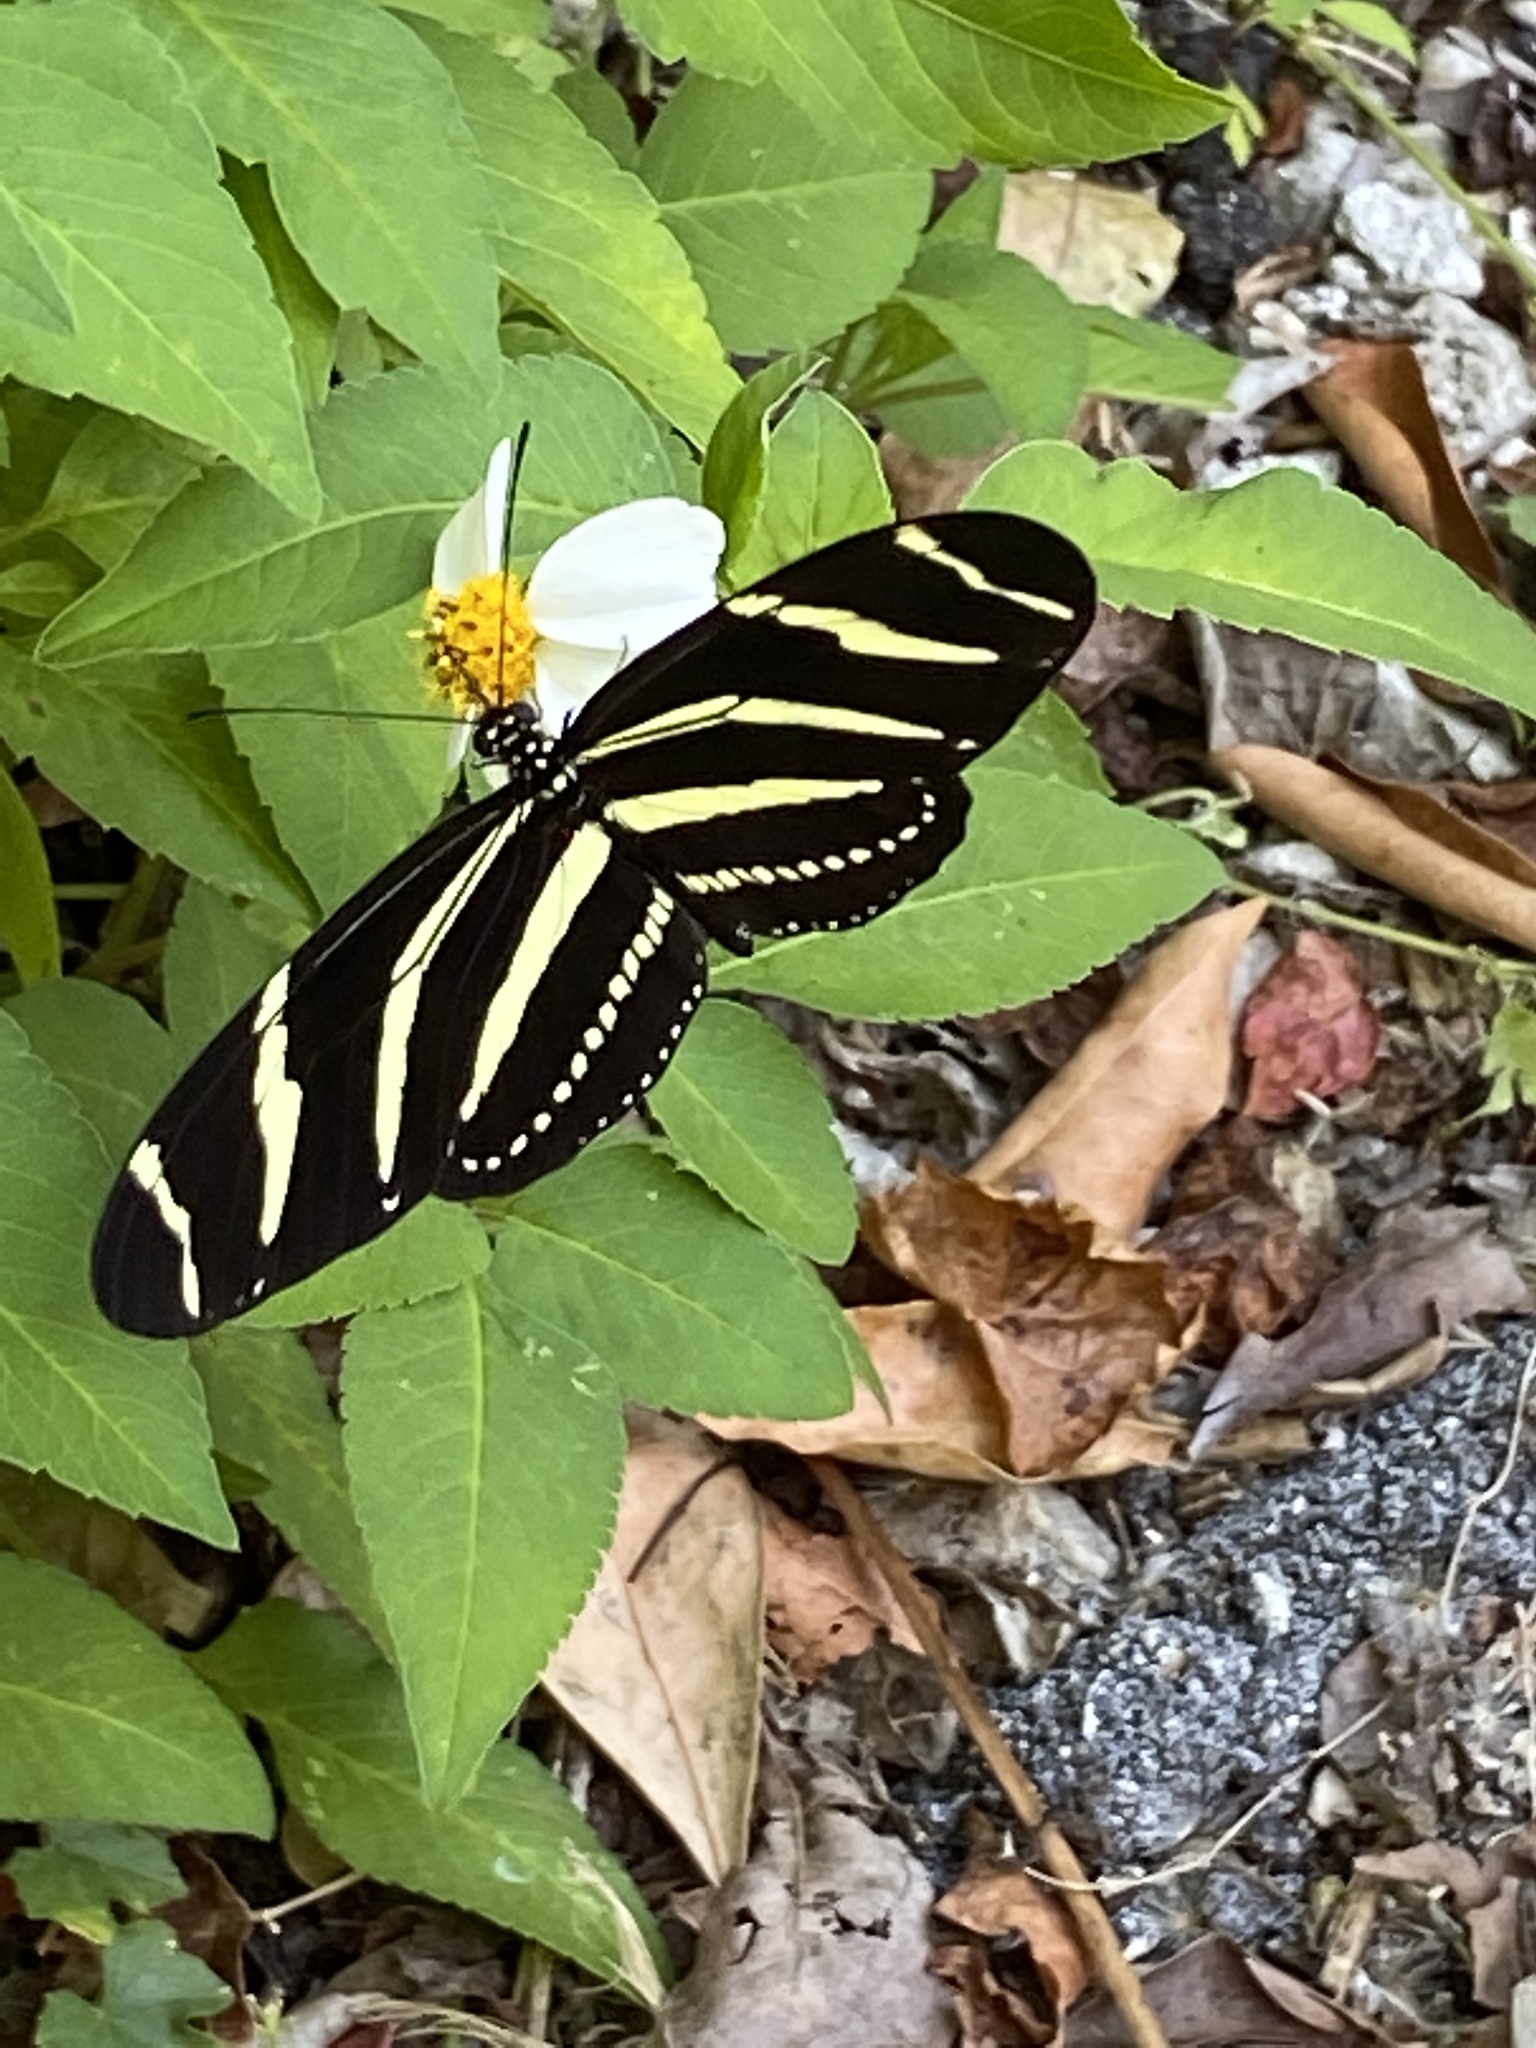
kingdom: Animalia
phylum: Arthropoda
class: Insecta
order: Lepidoptera
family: Nymphalidae
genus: Heliconius
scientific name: Heliconius charithonia
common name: Zebra long wing
